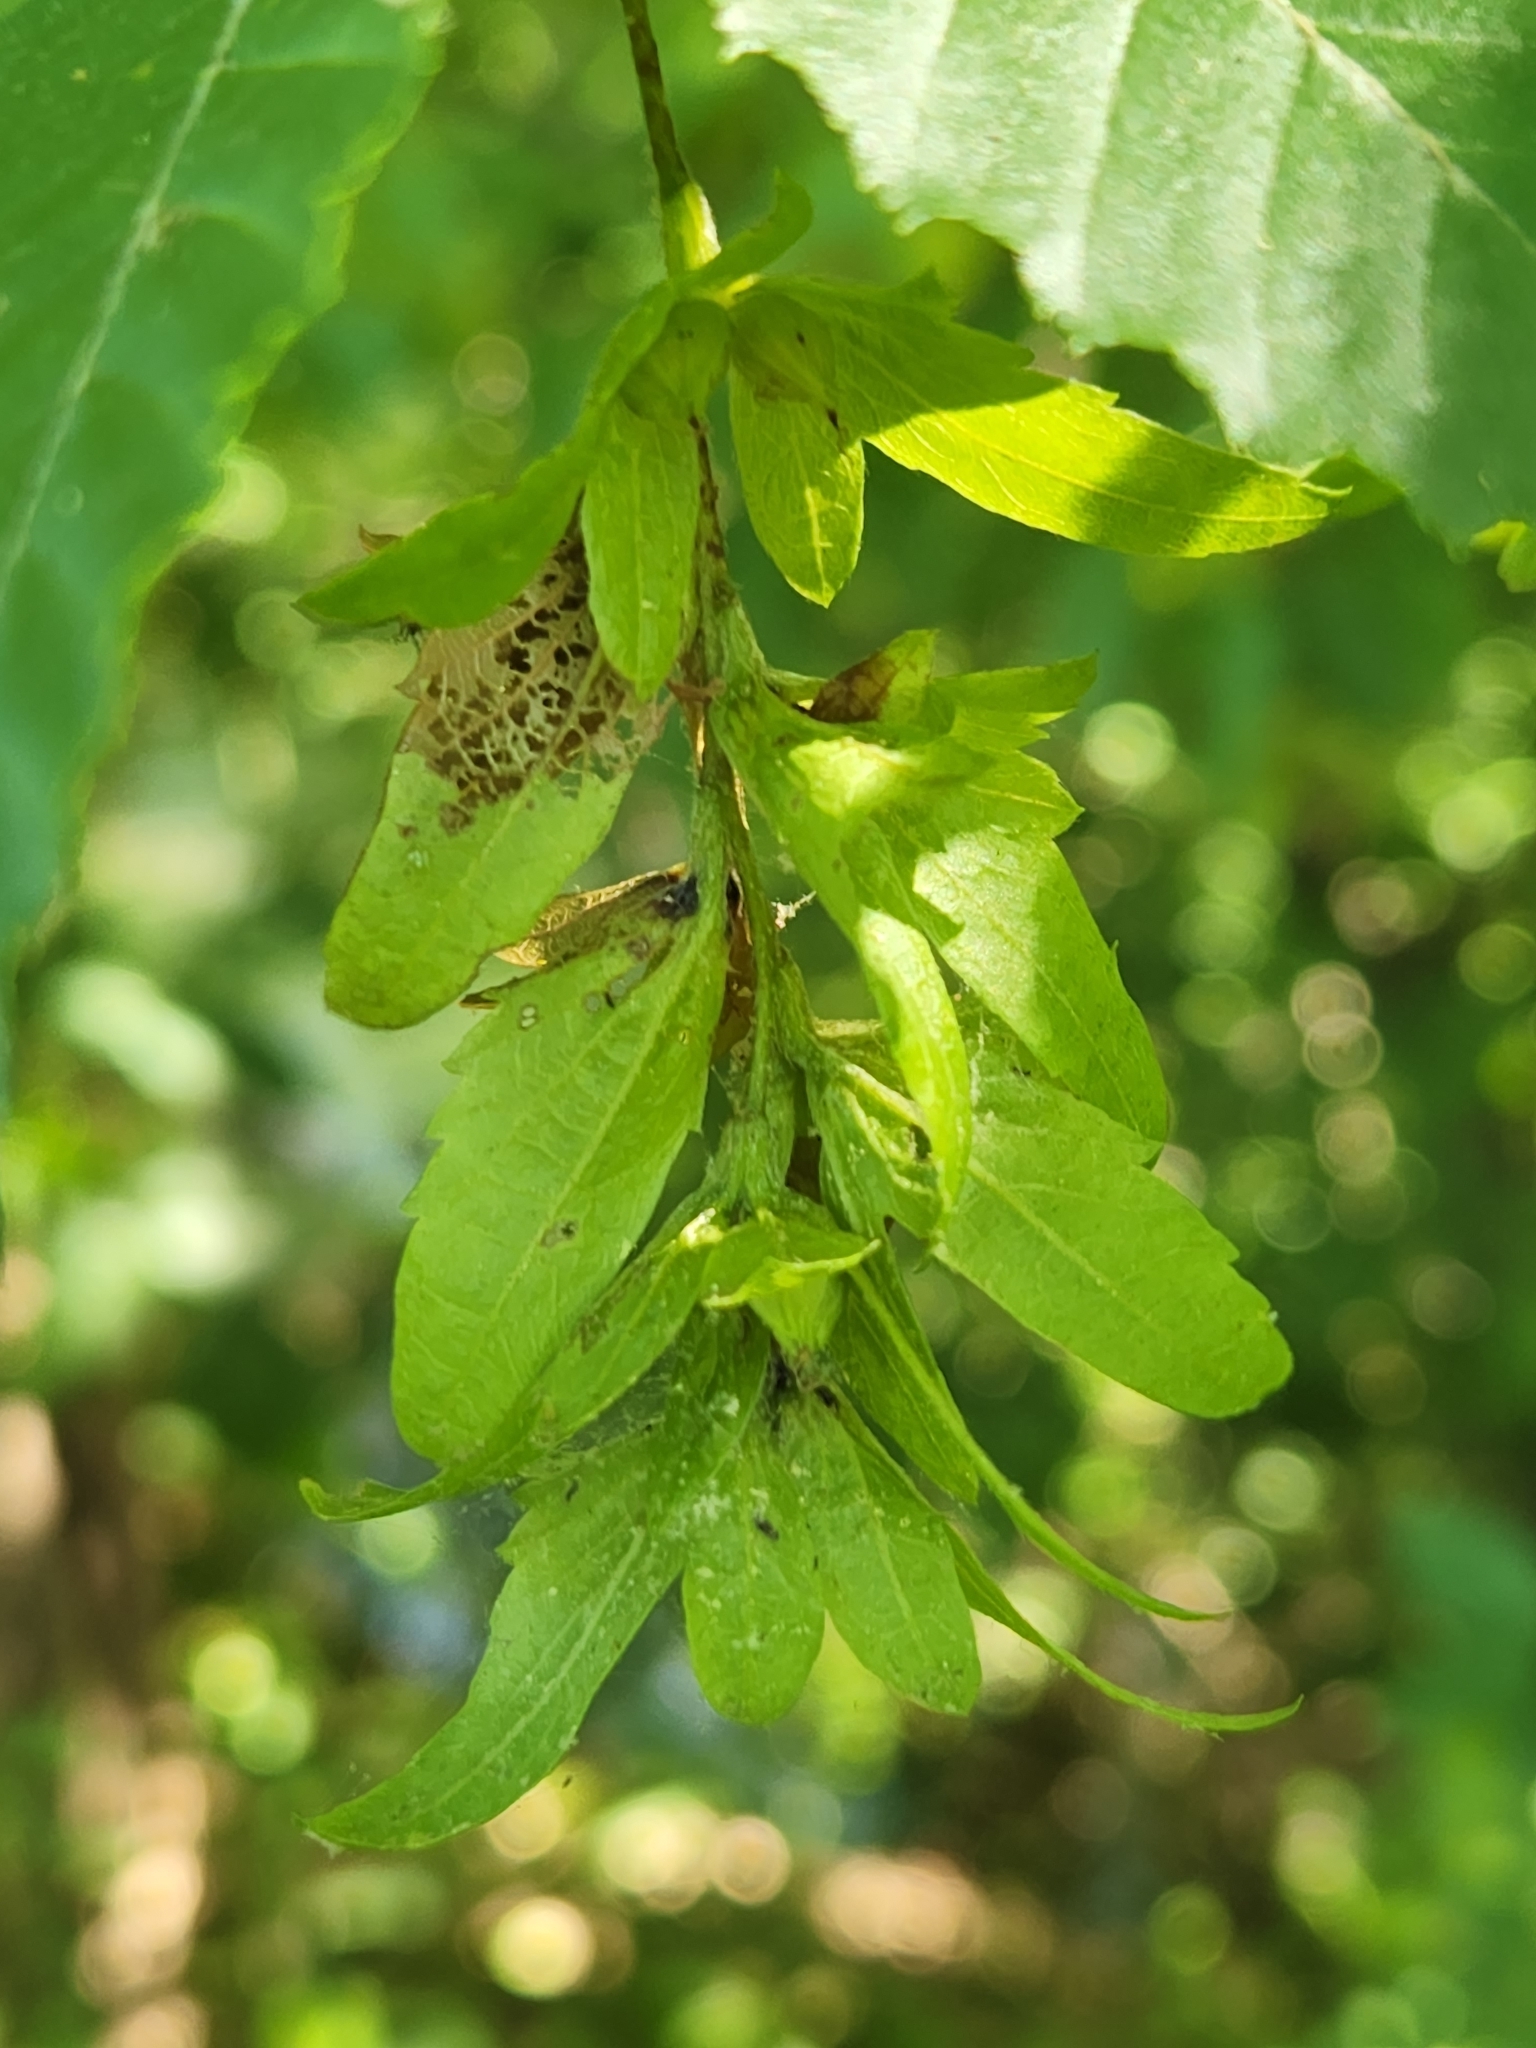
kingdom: Plantae
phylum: Tracheophyta
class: Magnoliopsida
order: Fagales
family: Betulaceae
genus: Carpinus
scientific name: Carpinus caroliniana
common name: American hornbeam
